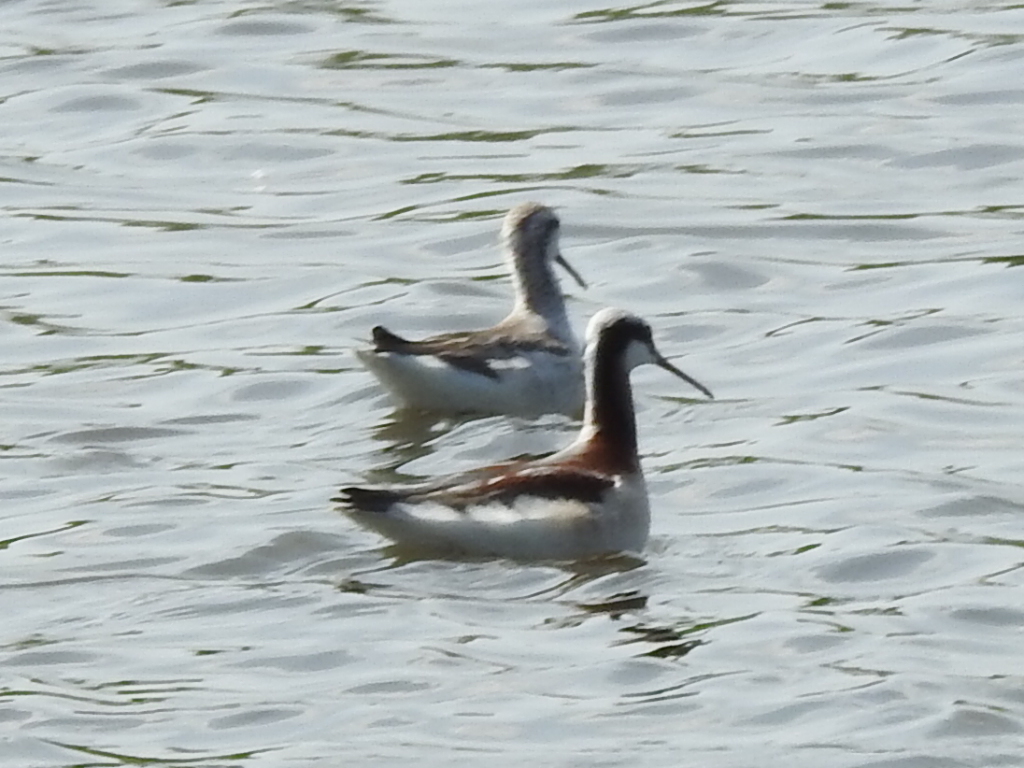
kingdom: Animalia
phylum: Chordata
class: Aves
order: Charadriiformes
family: Scolopacidae
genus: Phalaropus
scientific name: Phalaropus tricolor
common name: Wilson's phalarope
